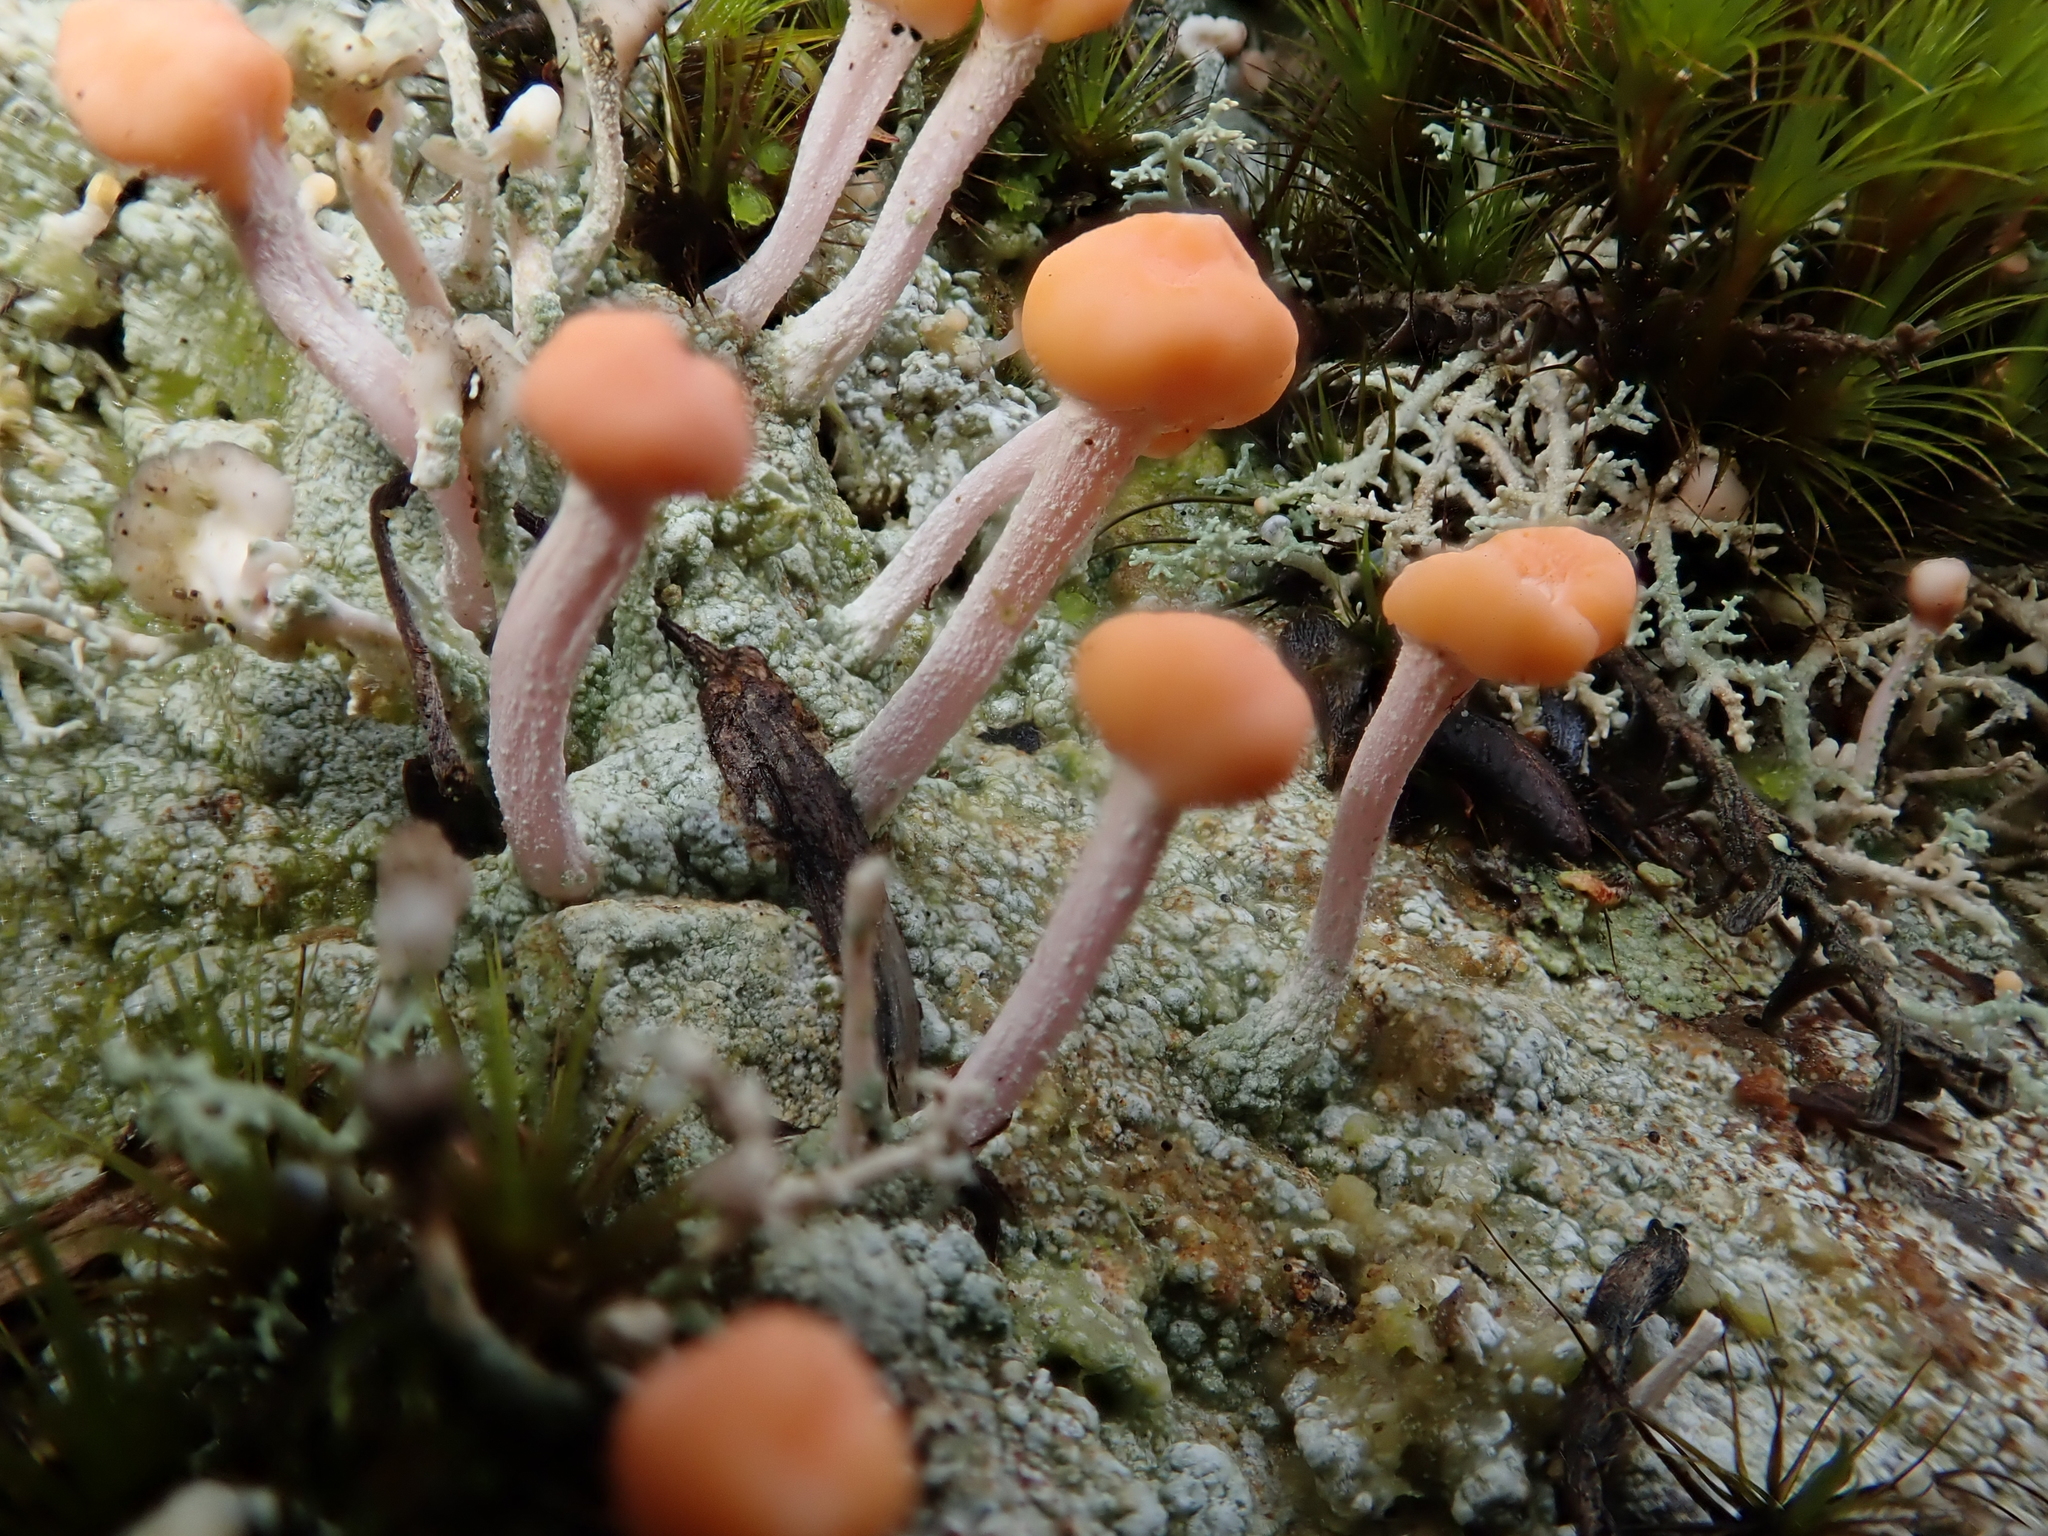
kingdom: Fungi
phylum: Ascomycota
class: Lecanoromycetes
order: Pertusariales
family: Icmadophilaceae
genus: Dibaeis
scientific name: Dibaeis arcuata
